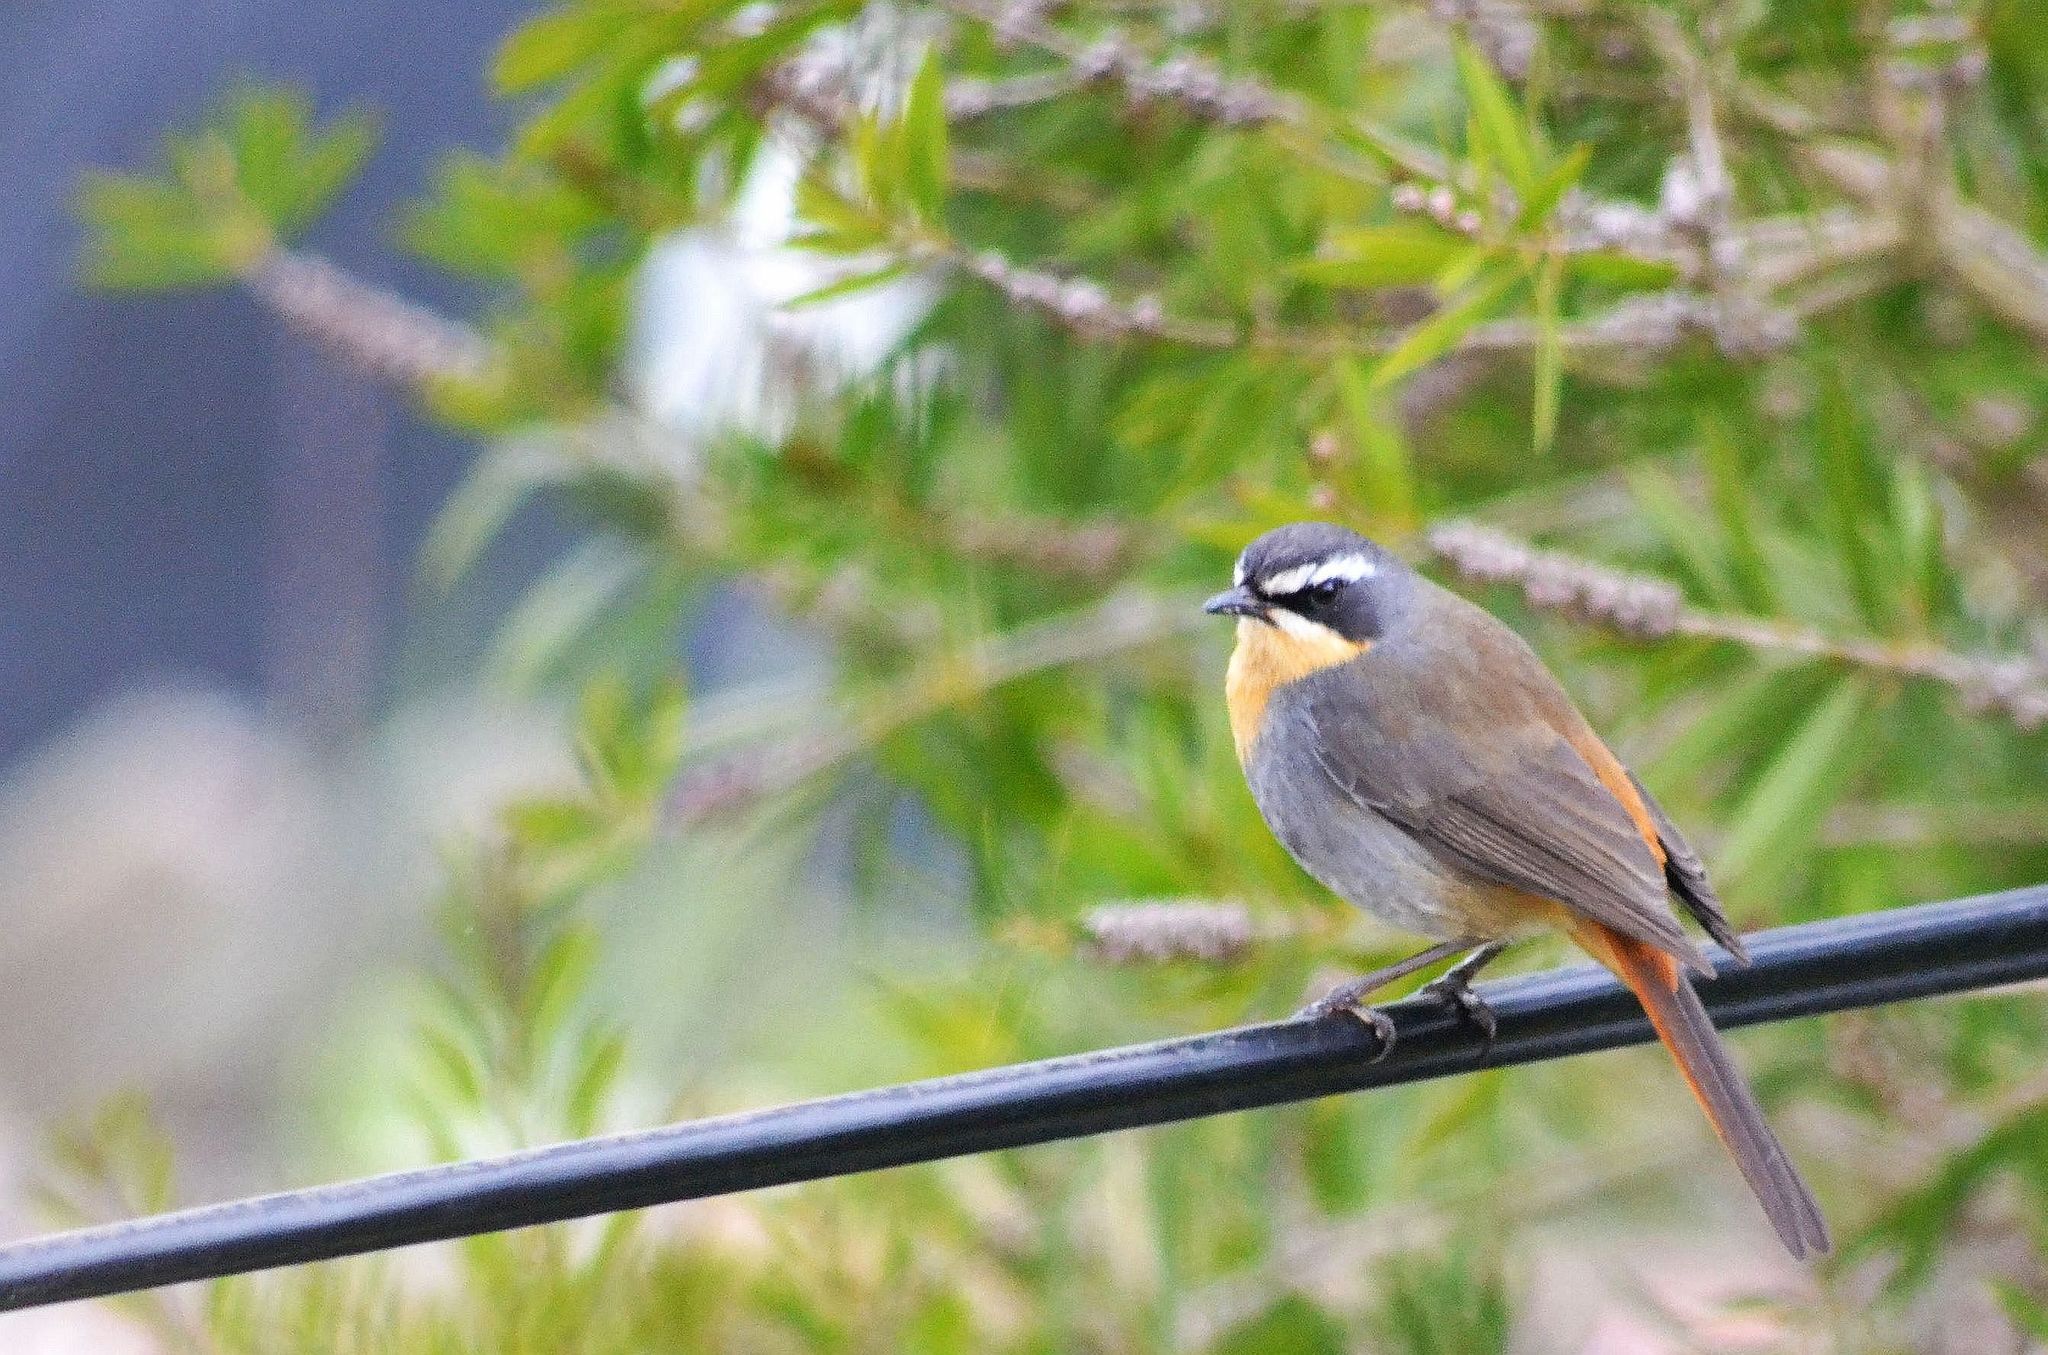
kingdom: Animalia
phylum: Chordata
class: Aves
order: Passeriformes
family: Muscicapidae
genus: Cossypha
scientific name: Cossypha caffra
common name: Cape robin-chat
